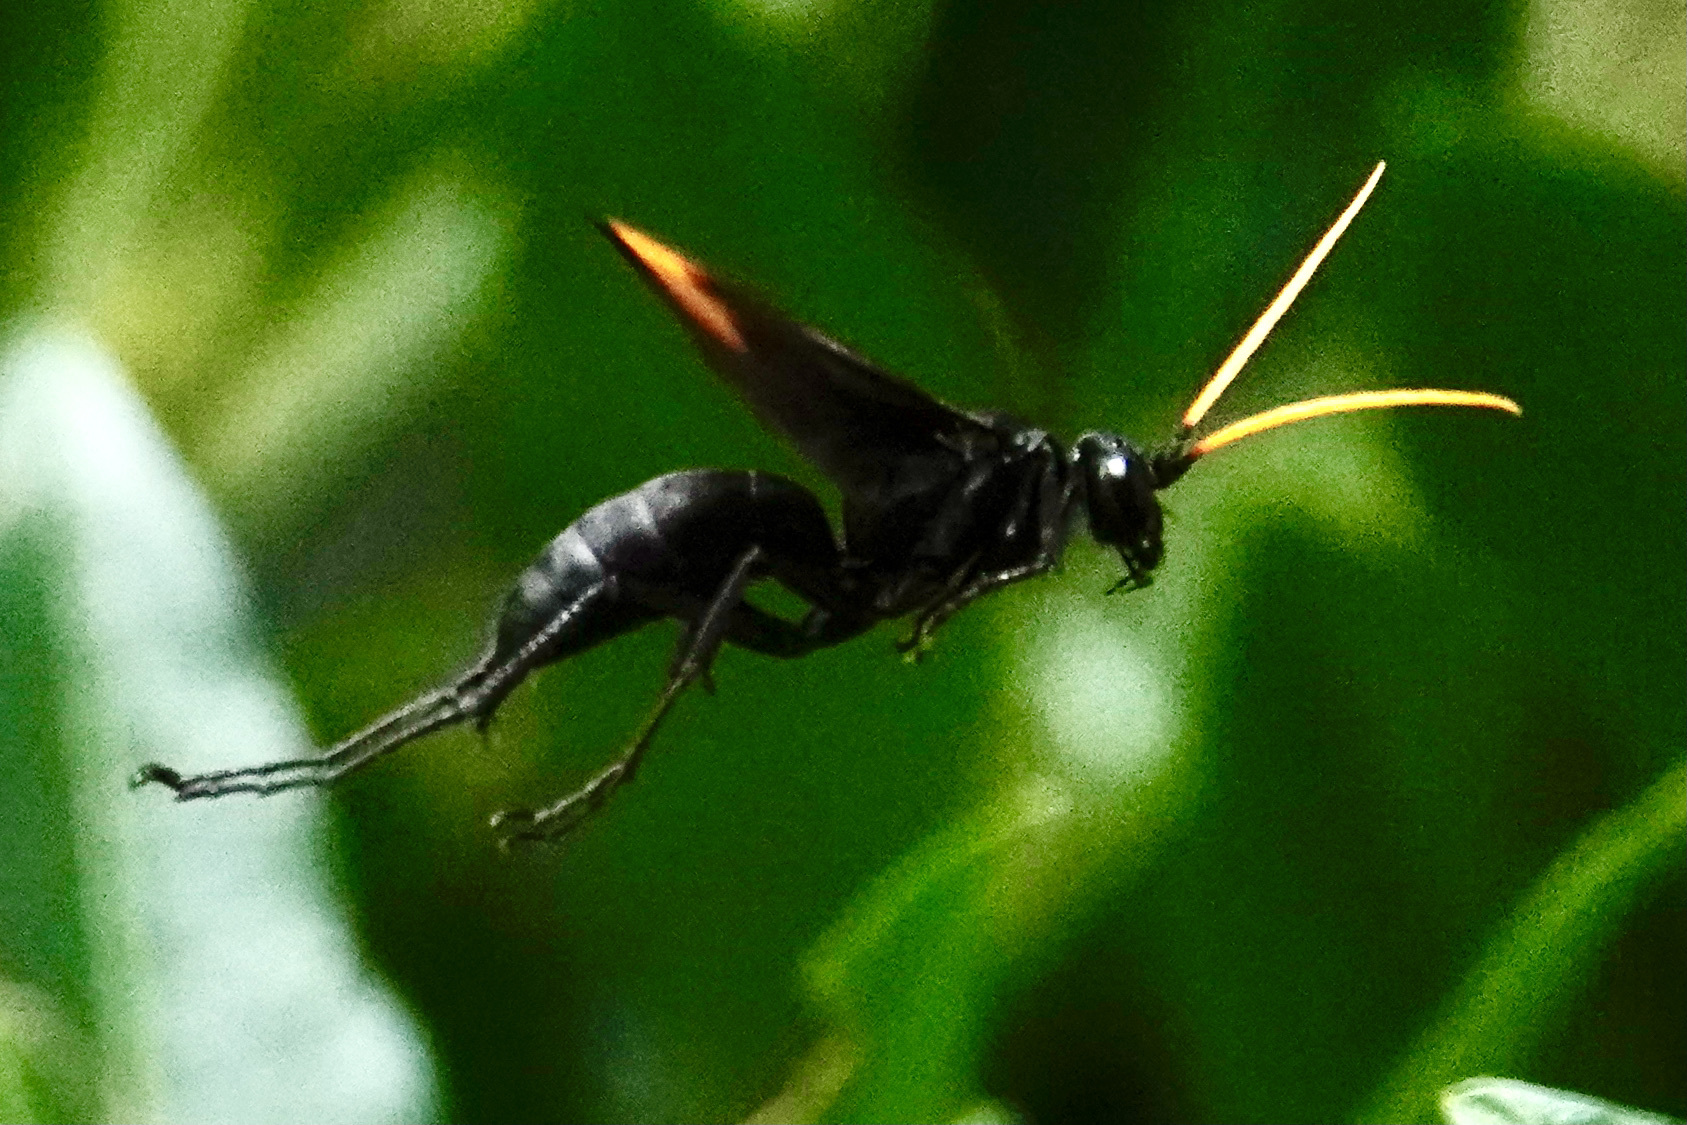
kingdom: Animalia
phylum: Arthropoda
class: Insecta
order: Hymenoptera
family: Pompilidae
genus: Entypus
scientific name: Entypus unifasciatus
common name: Eastern tawny-horned spider wasp
